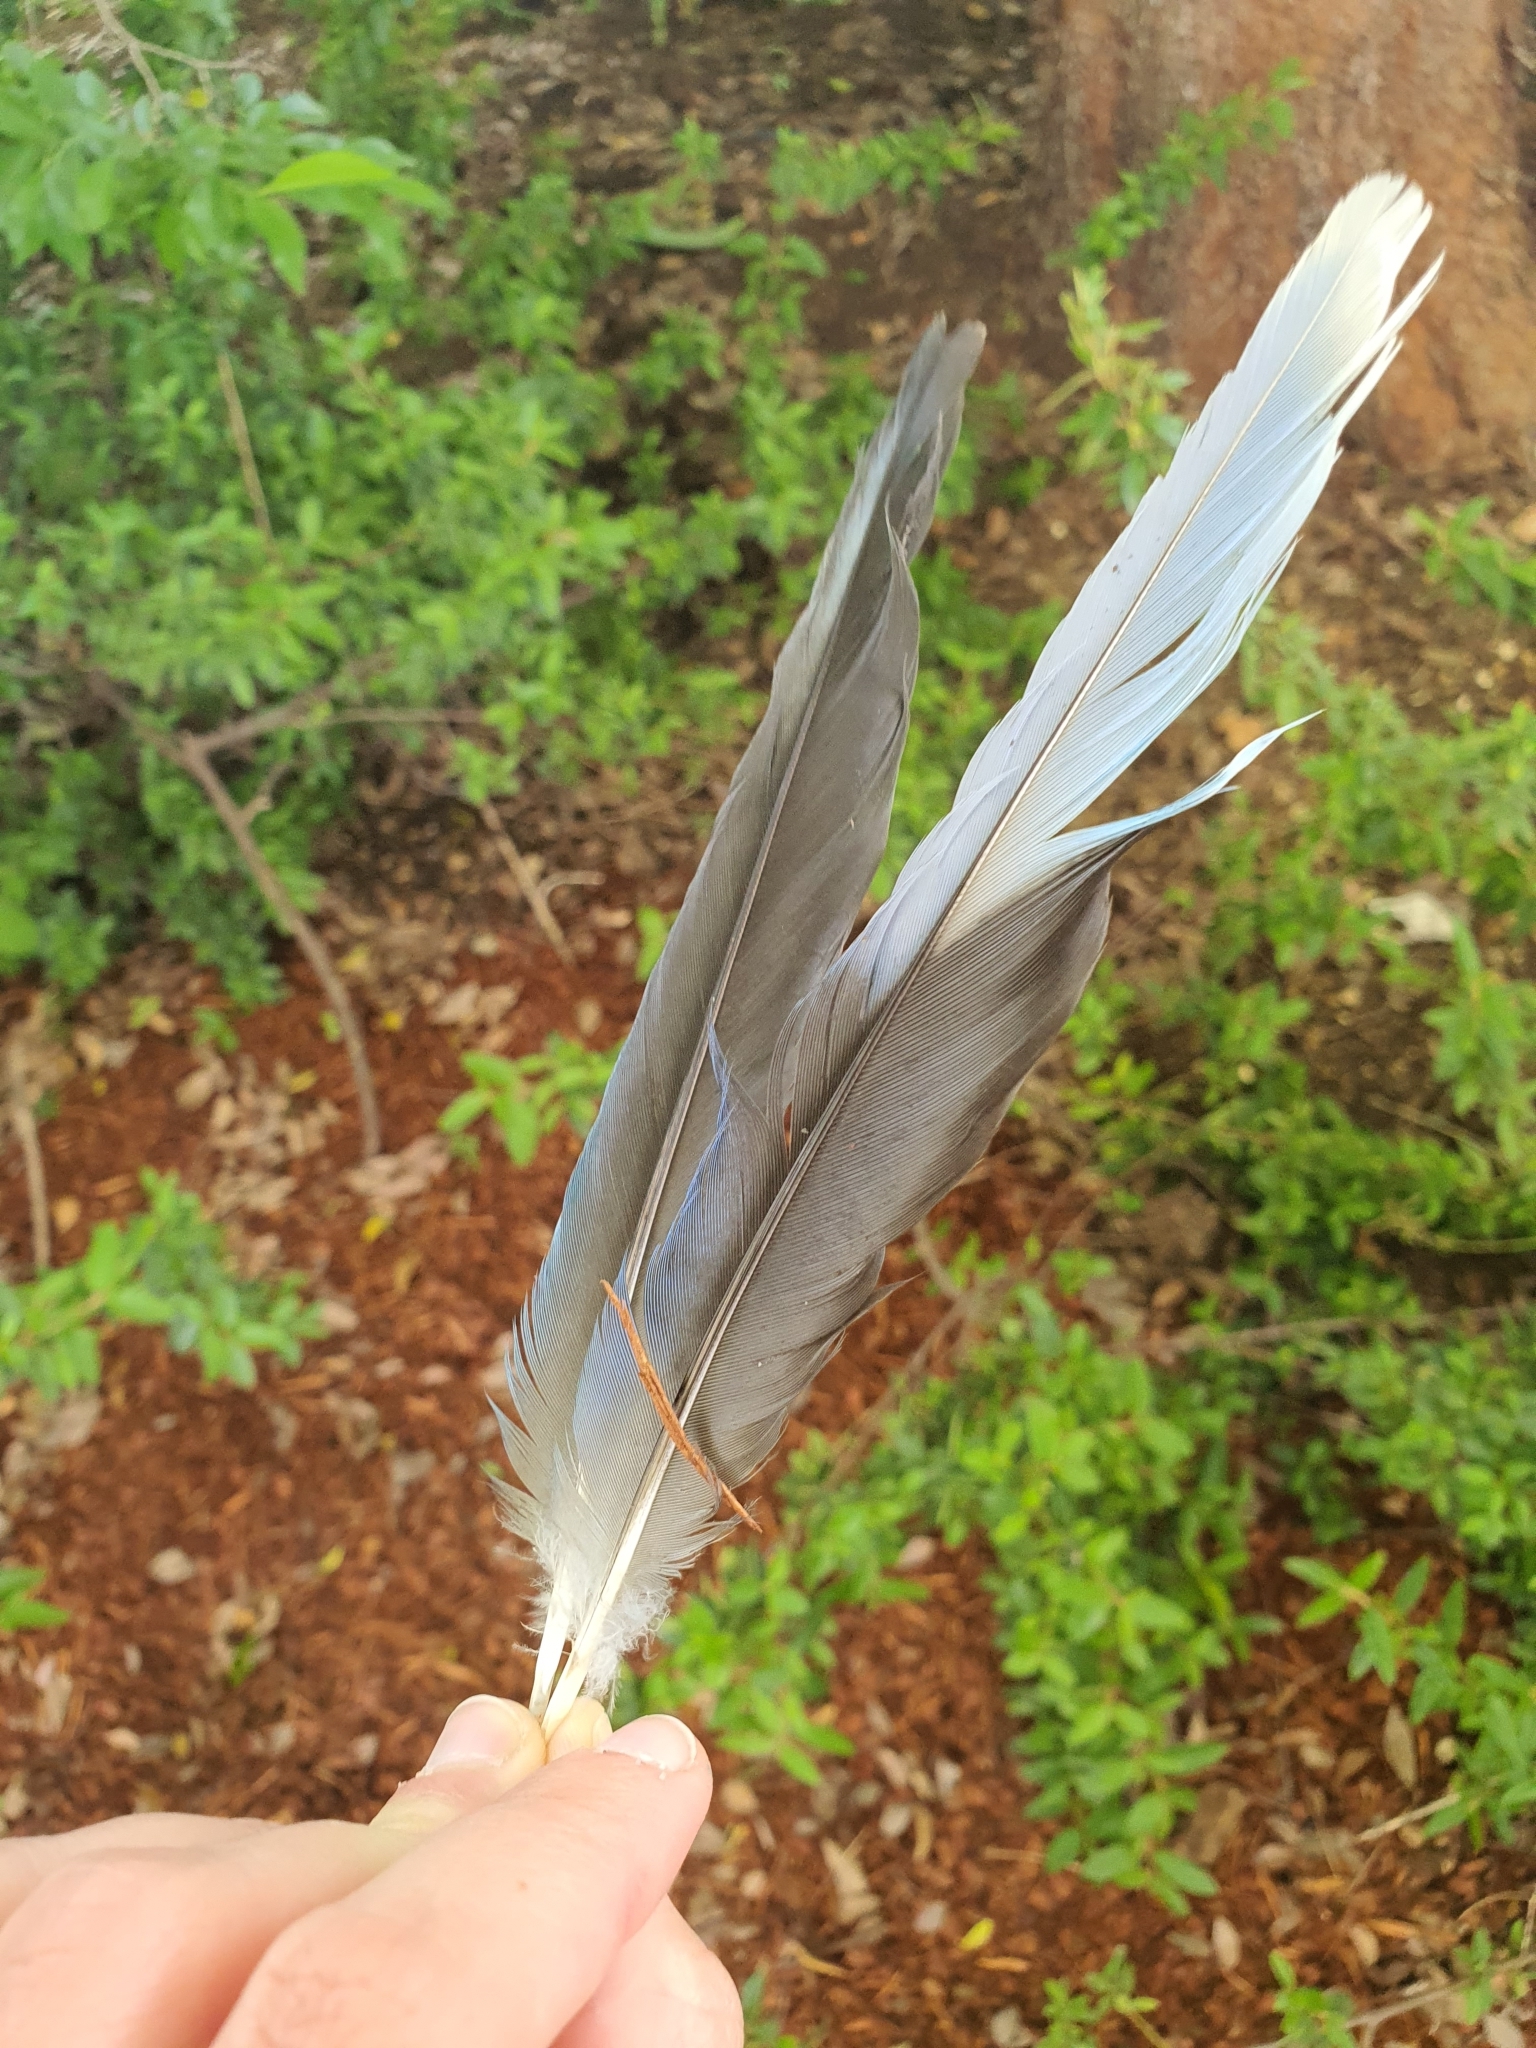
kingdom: Animalia
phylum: Chordata
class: Aves
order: Psittaciformes
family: Psittacidae
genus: Platycercus
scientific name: Platycercus eximius
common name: Eastern rosella
